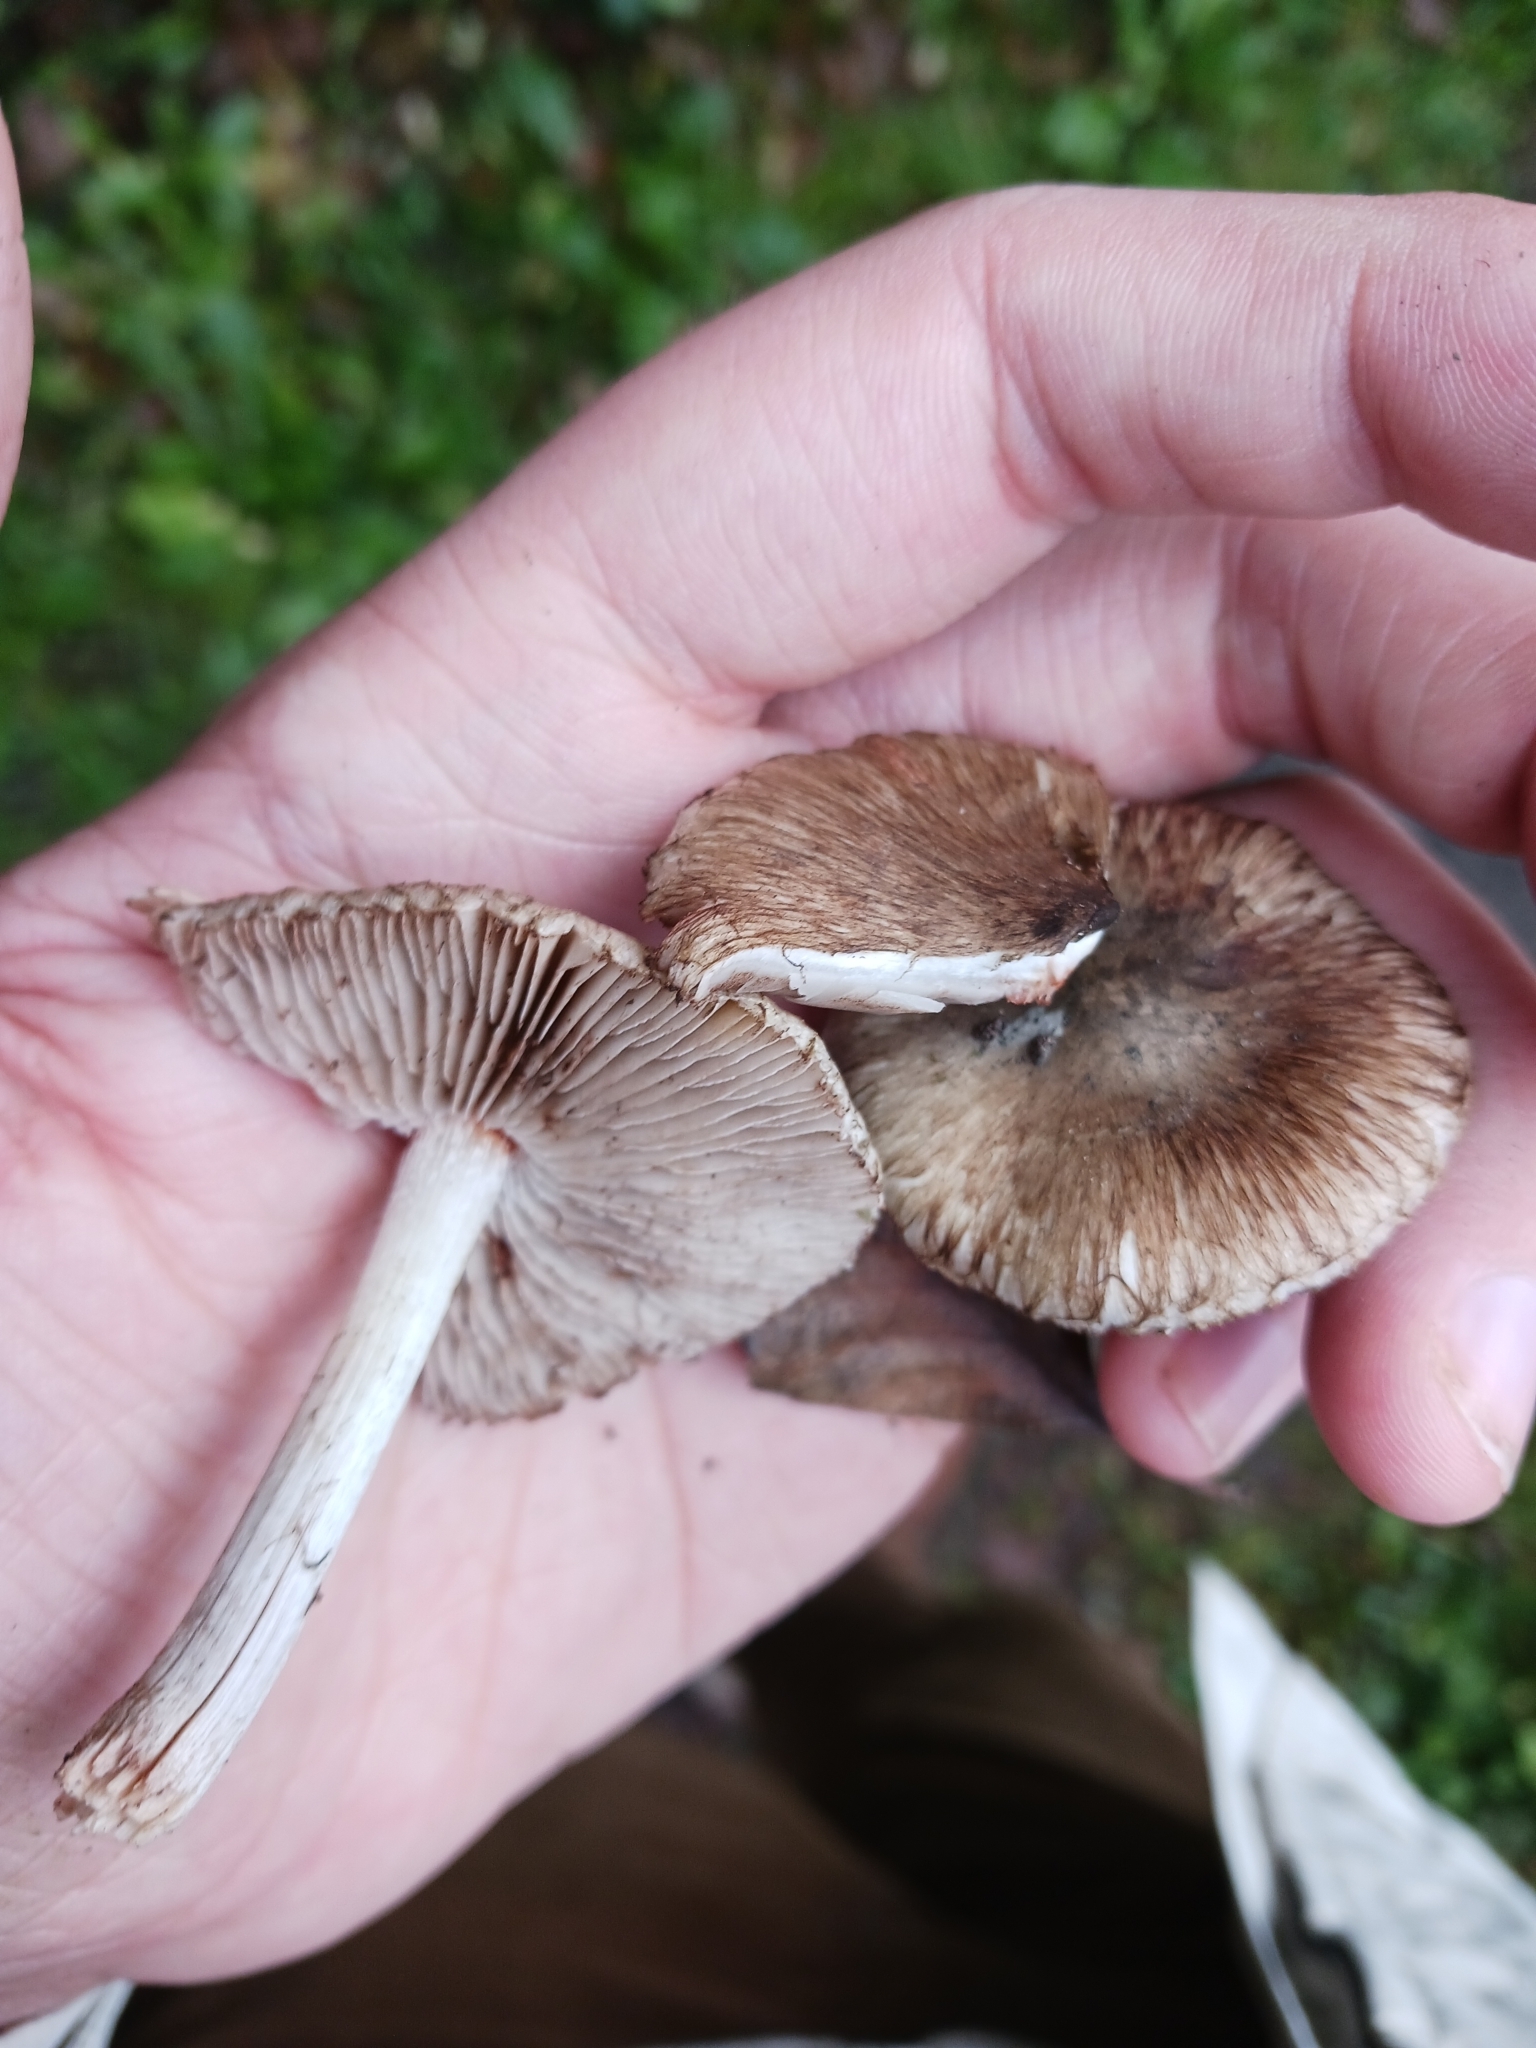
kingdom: Fungi
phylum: Basidiomycota
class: Agaricomycetes
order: Agaricales
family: Inocybaceae
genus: Inocybe
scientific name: Inocybe erinaceomorpha
